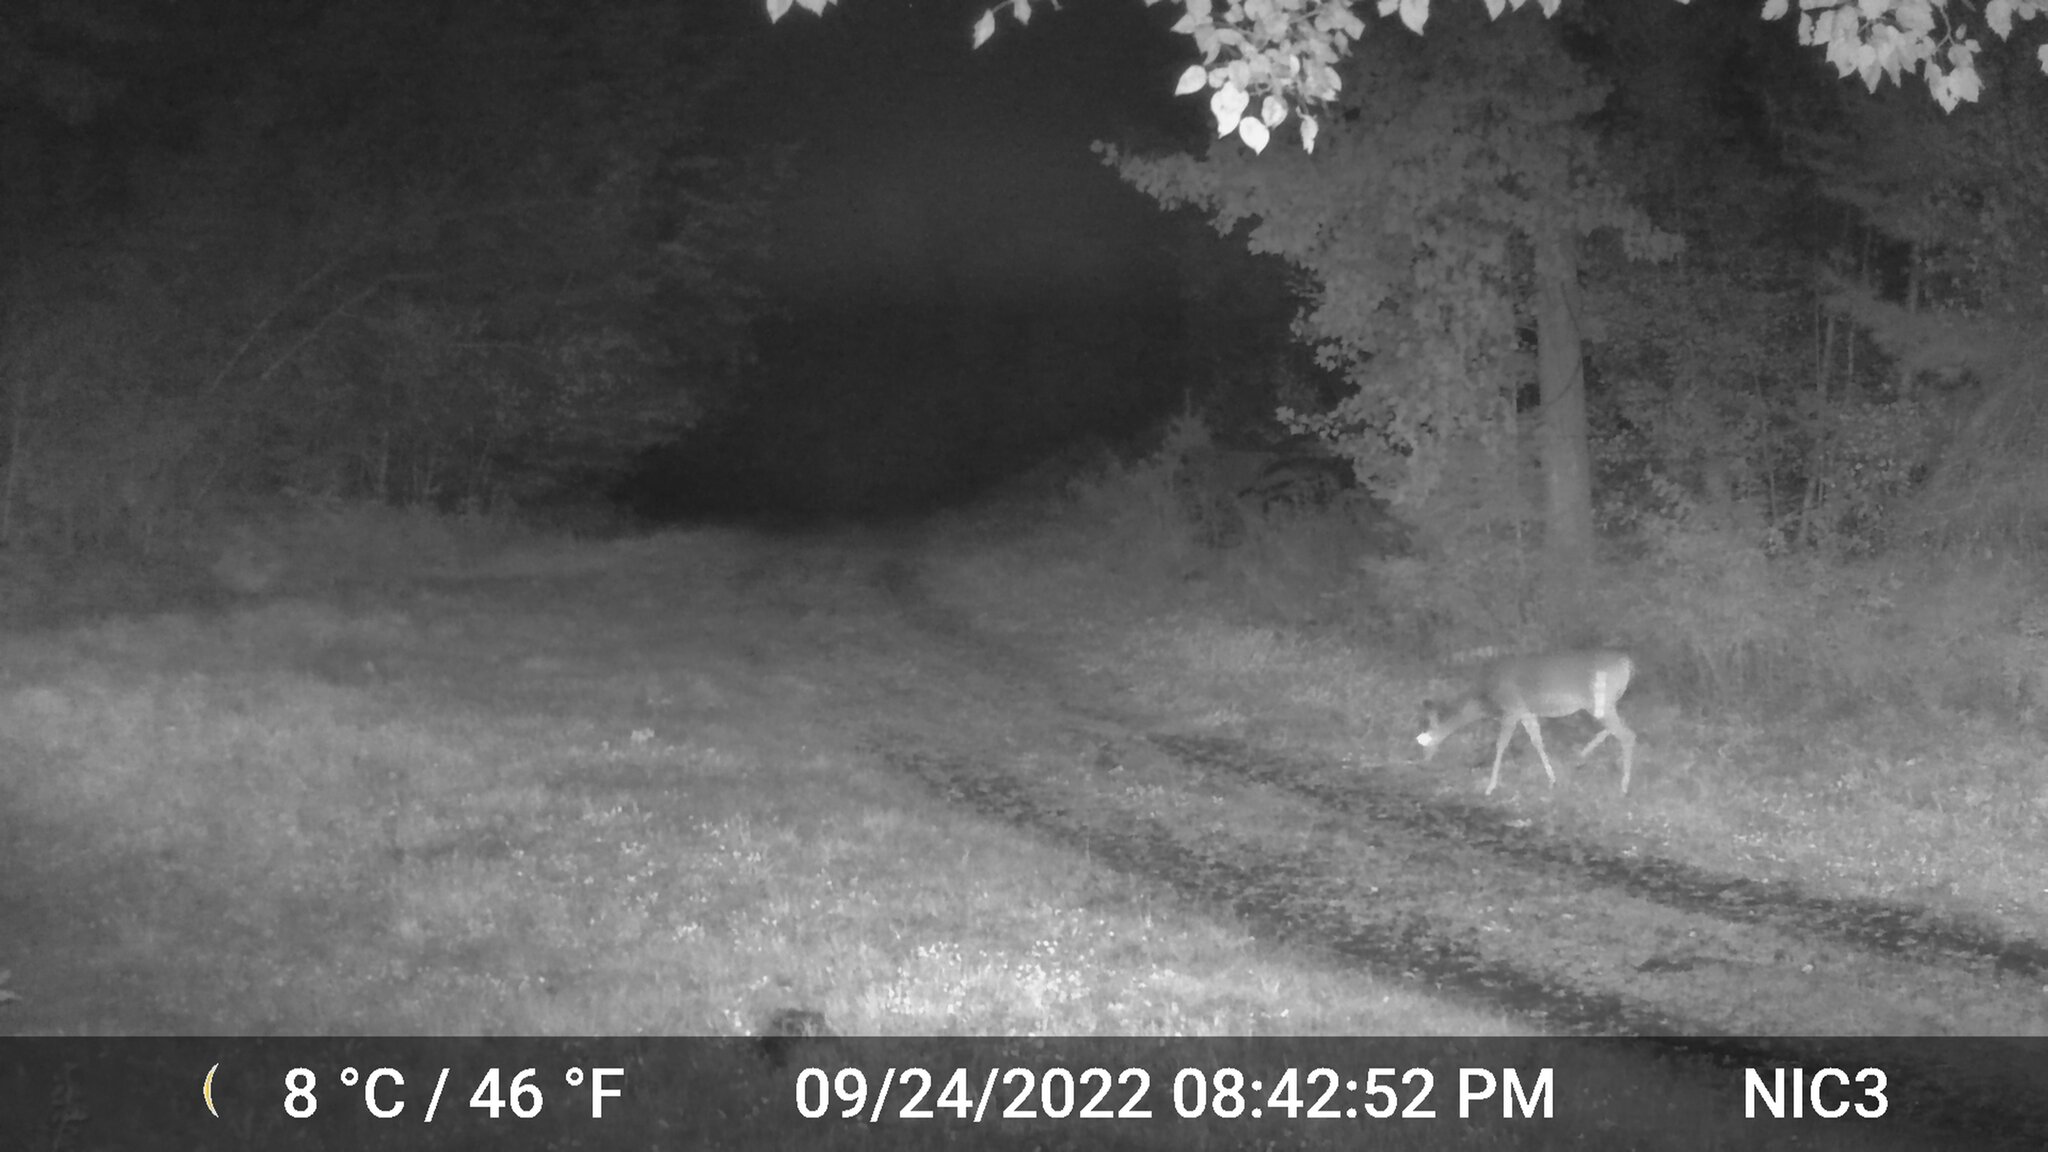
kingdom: Animalia
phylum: Chordata
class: Mammalia
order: Artiodactyla
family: Cervidae
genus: Odocoileus
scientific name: Odocoileus virginianus
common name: White-tailed deer
